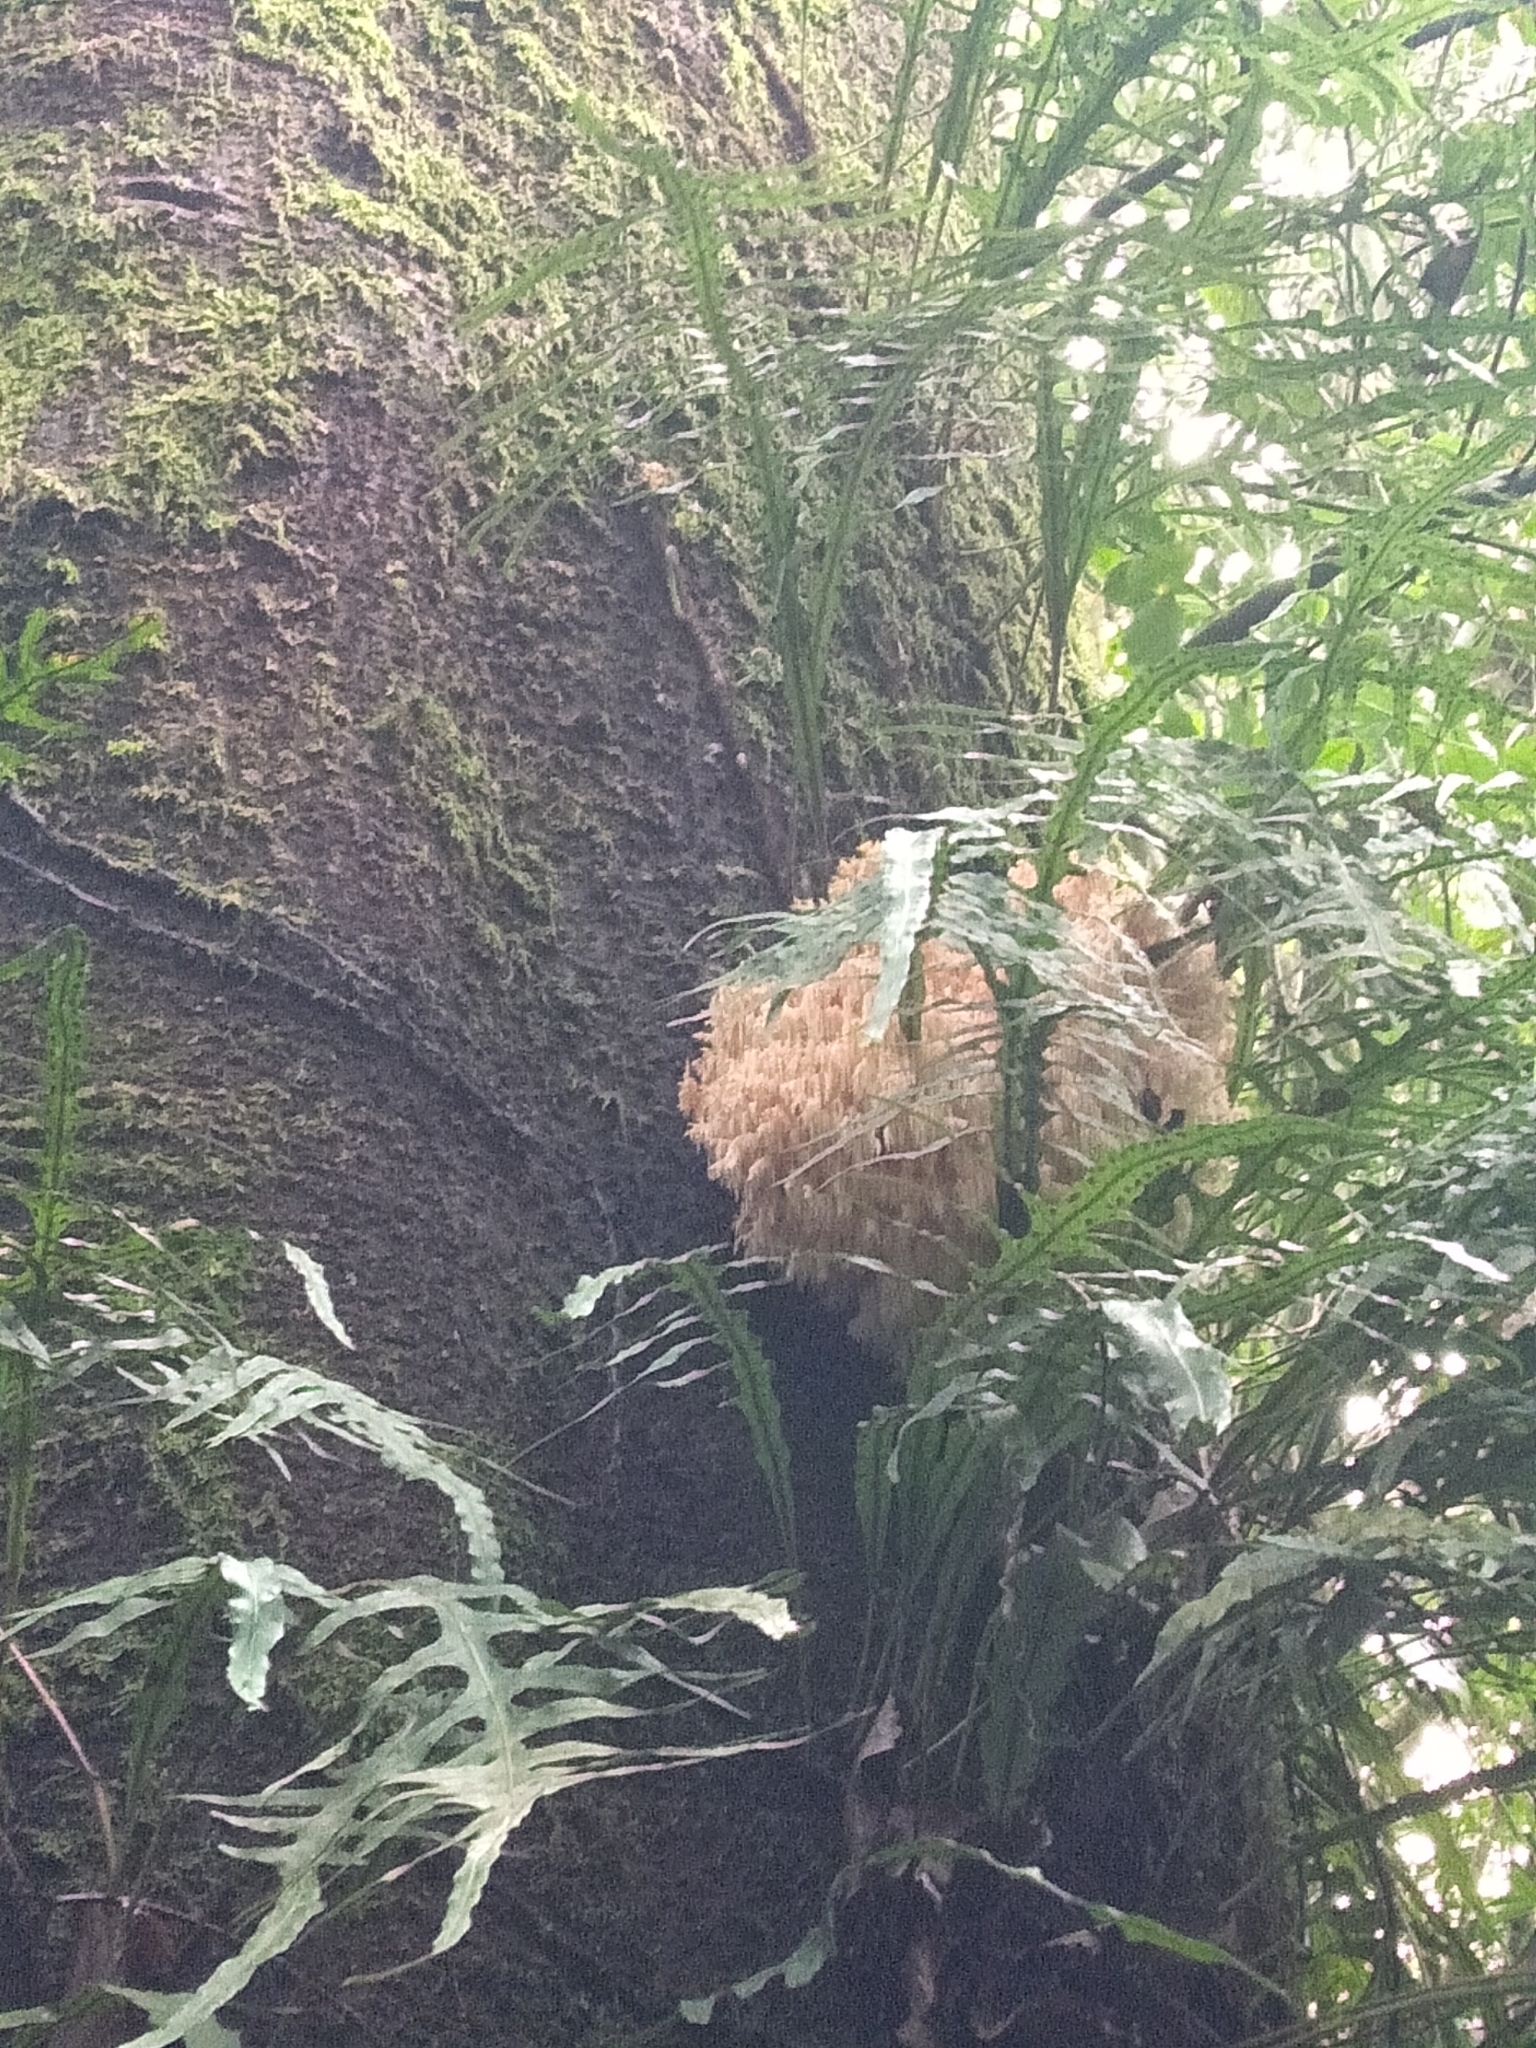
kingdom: Fungi
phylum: Basidiomycota
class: Agaricomycetes
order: Russulales
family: Hericiaceae
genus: Hericium
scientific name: Hericium novae-zealandiae
